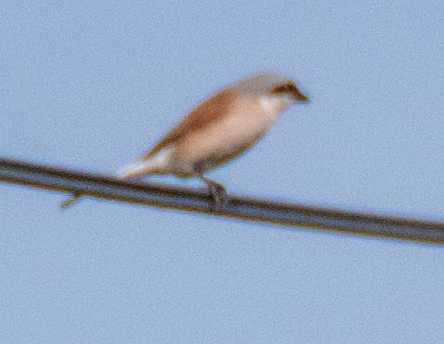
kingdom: Animalia
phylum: Chordata
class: Aves
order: Passeriformes
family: Laniidae
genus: Lanius
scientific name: Lanius collurio
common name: Red-backed shrike
